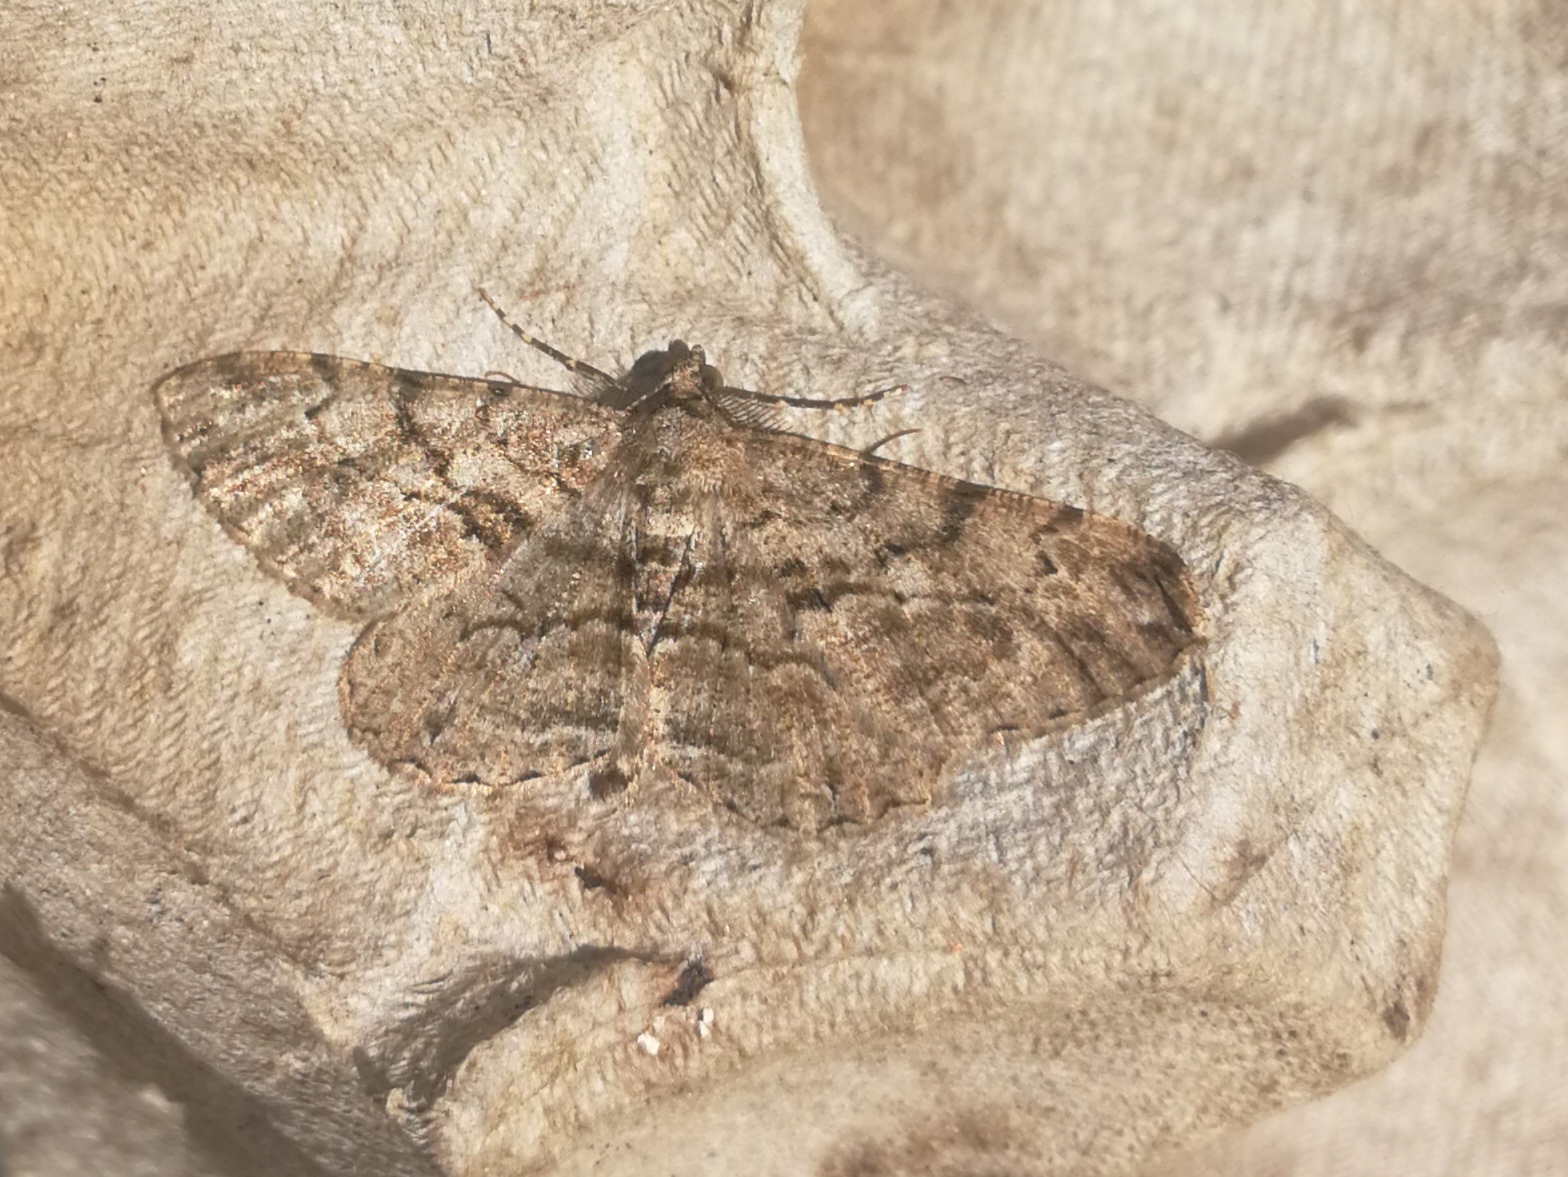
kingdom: Animalia
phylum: Arthropoda
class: Insecta
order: Lepidoptera
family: Geometridae
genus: Peribatodes
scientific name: Peribatodes rhomboidaria
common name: Willow beauty
